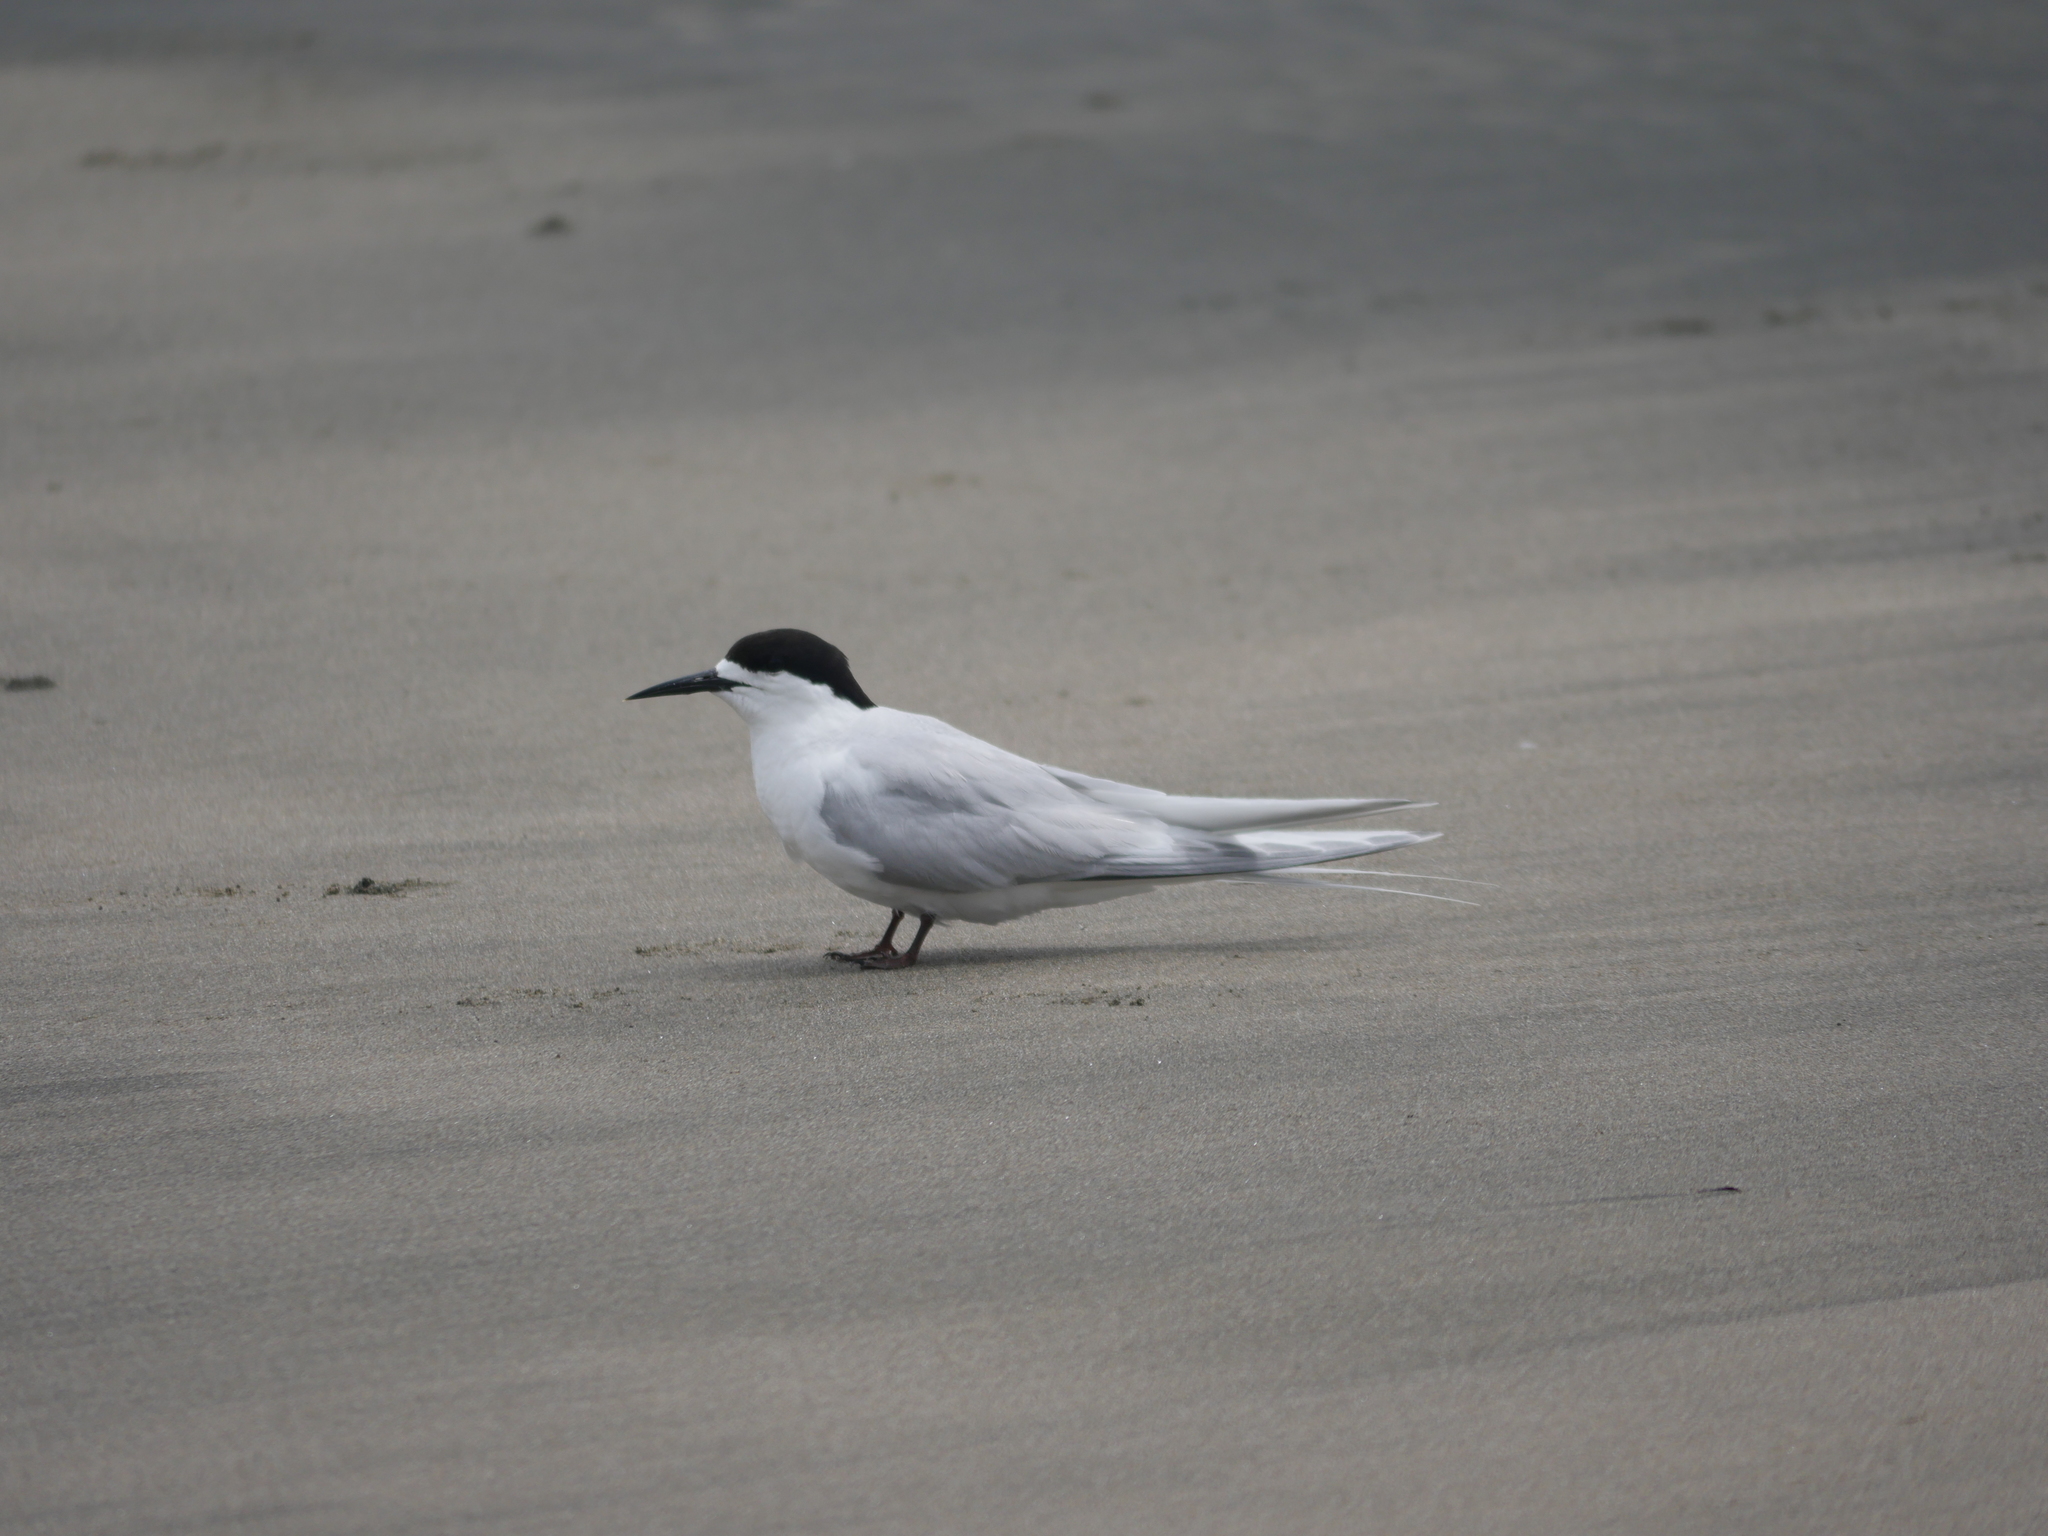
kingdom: Animalia
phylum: Chordata
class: Aves
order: Charadriiformes
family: Laridae
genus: Sterna
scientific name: Sterna striata
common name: White-fronted tern
